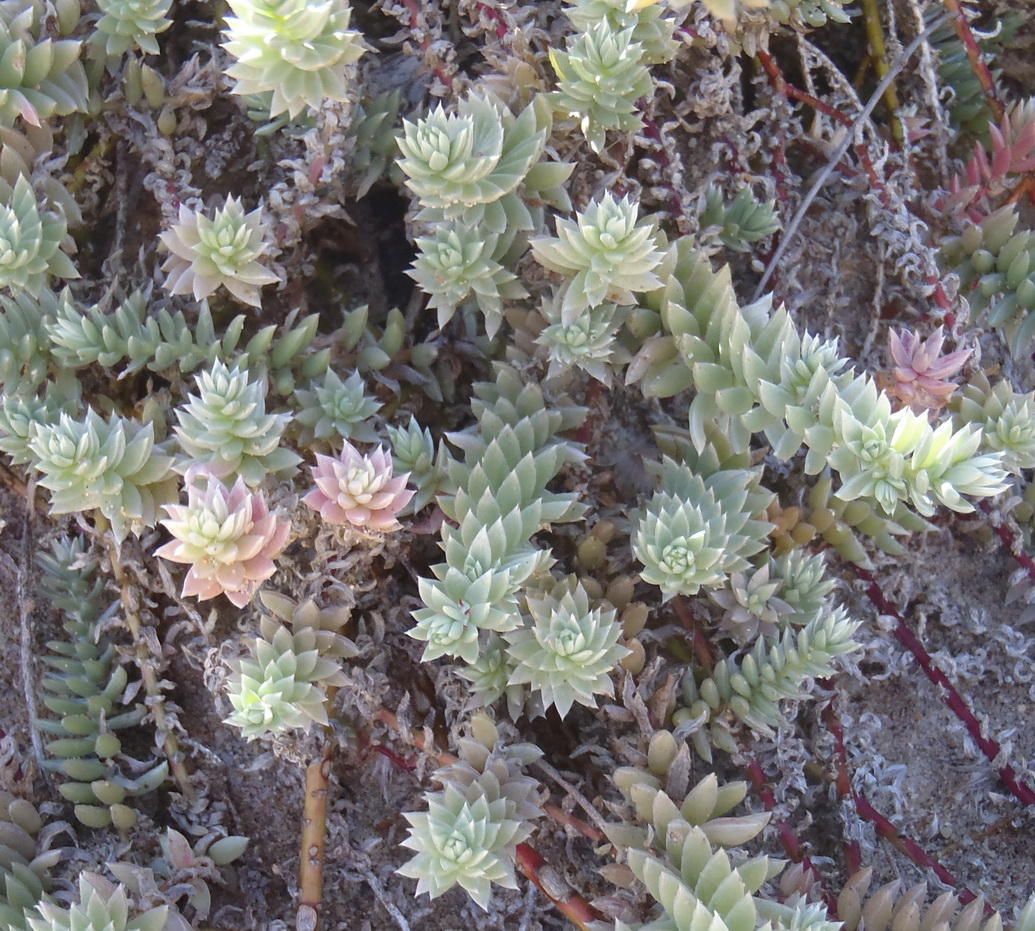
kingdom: Plantae
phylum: Tracheophyta
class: Magnoliopsida
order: Caryophyllales
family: Amaranthaceae
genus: Chenolea
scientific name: Chenolea diffusa
